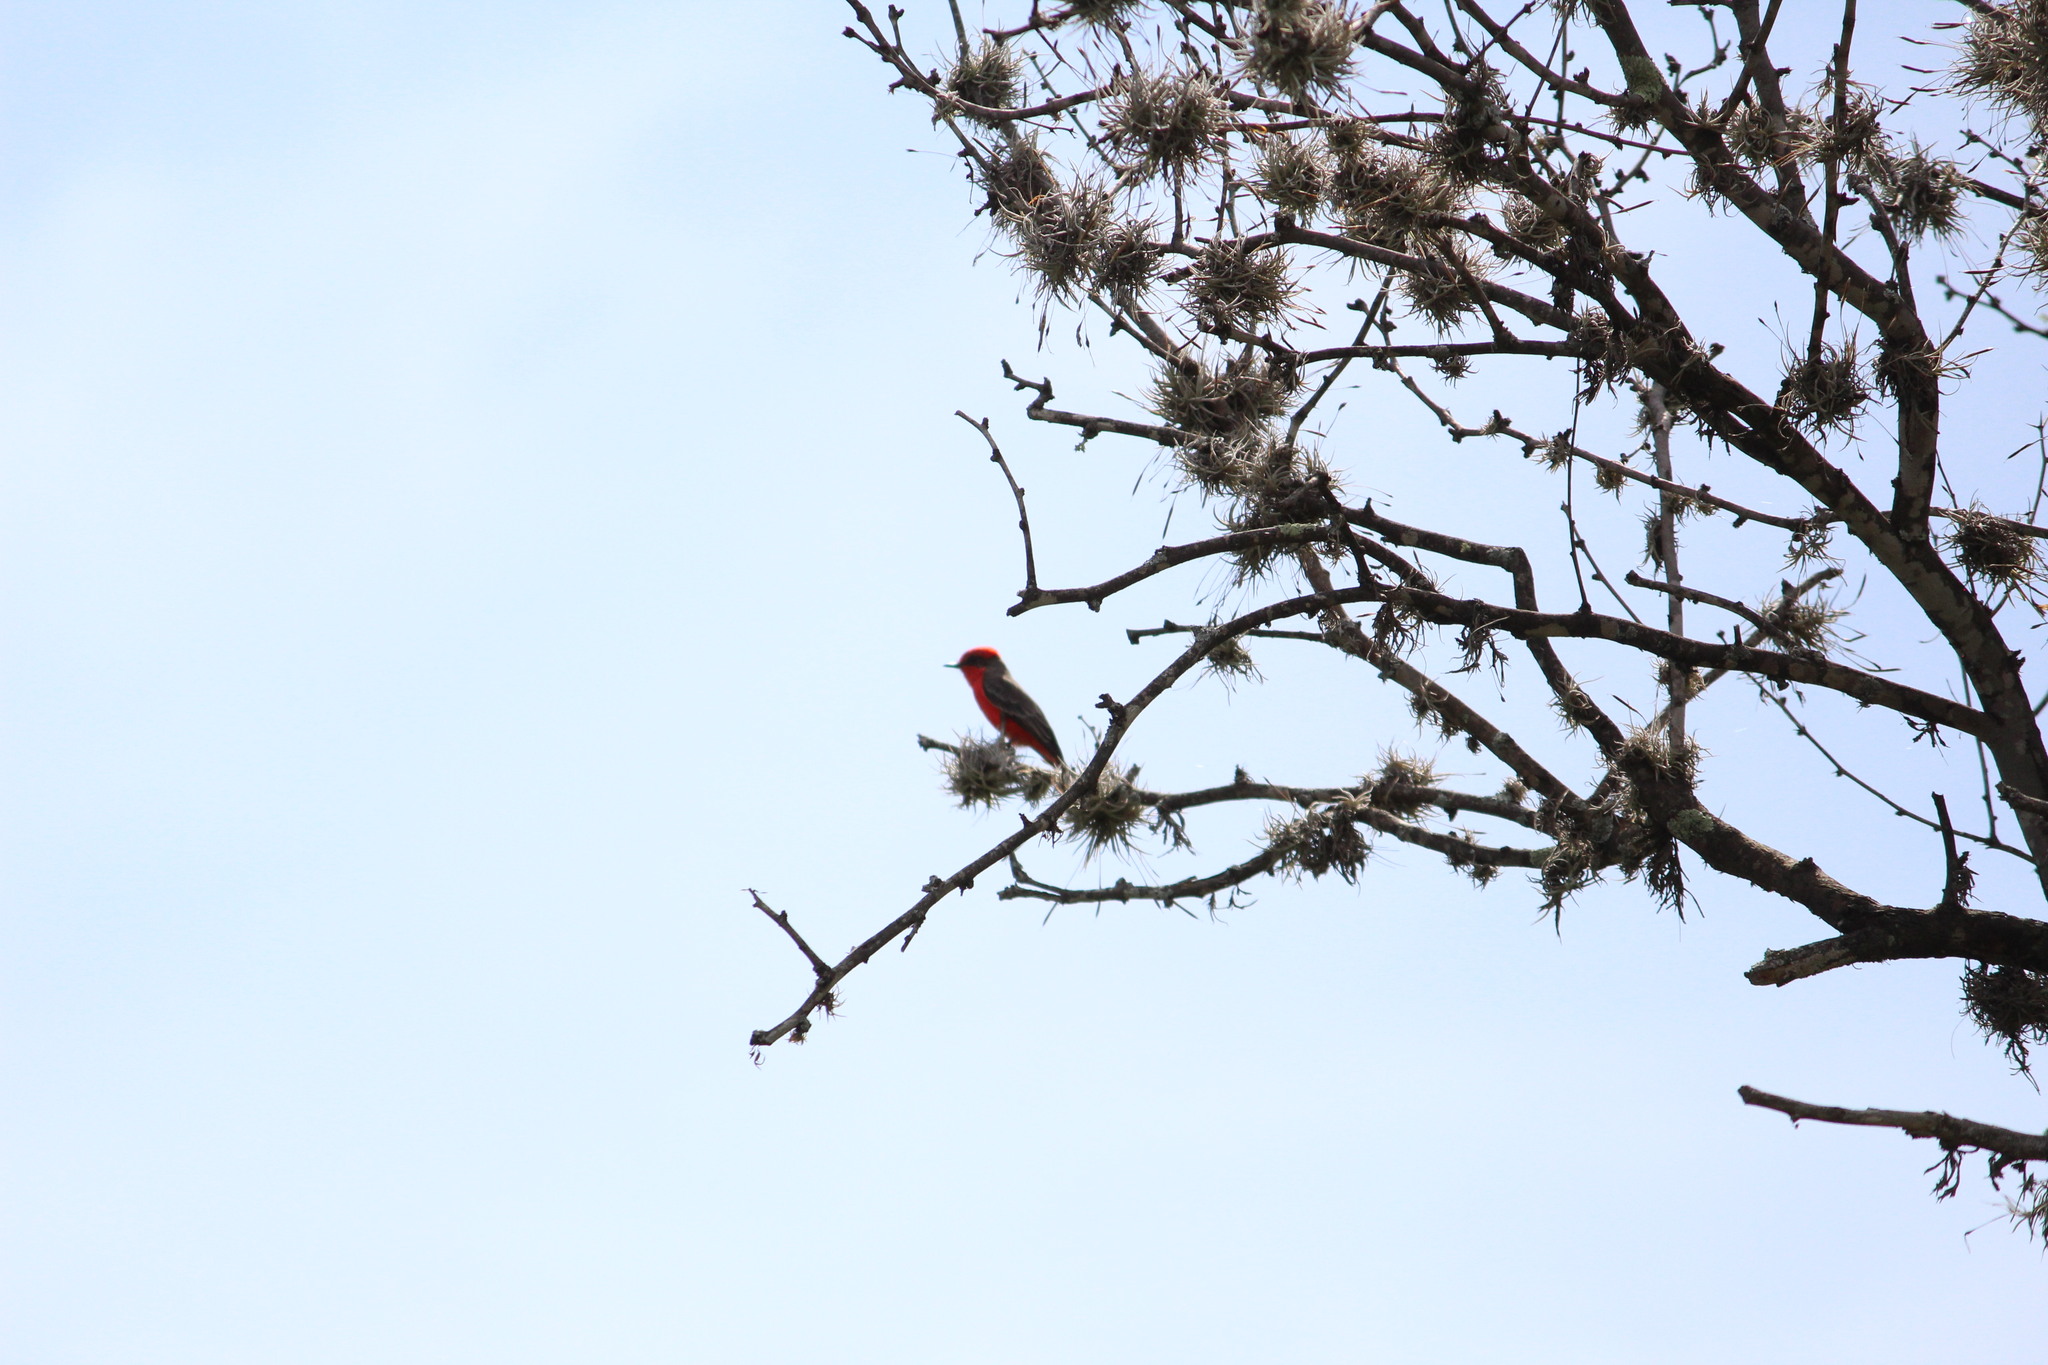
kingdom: Animalia
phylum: Chordata
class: Aves
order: Passeriformes
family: Tyrannidae
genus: Pyrocephalus
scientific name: Pyrocephalus rubinus
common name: Vermilion flycatcher
